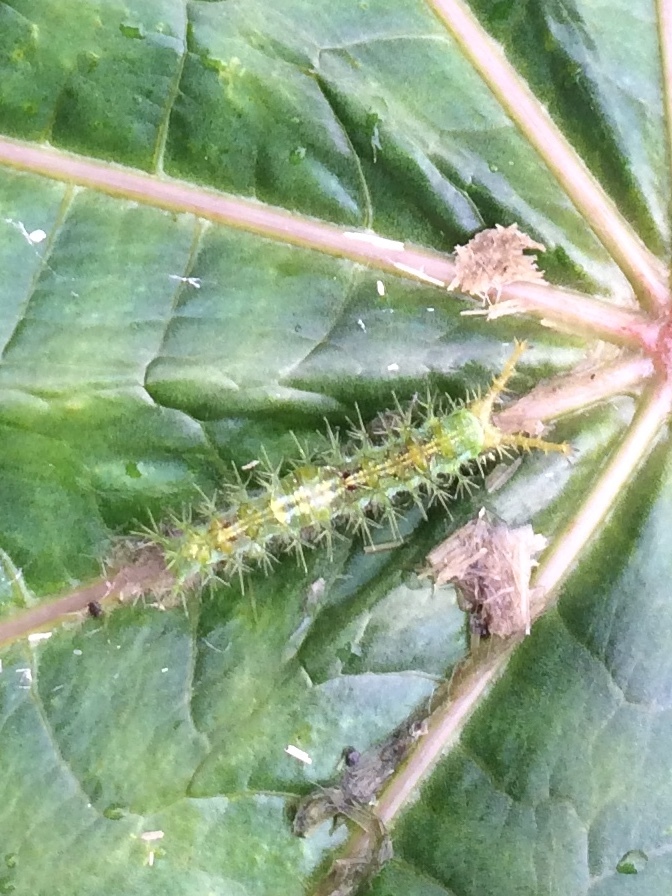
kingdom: Animalia
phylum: Arthropoda
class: Insecta
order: Lepidoptera
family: Nymphalidae
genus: Ariadne
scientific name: Ariadne merione
